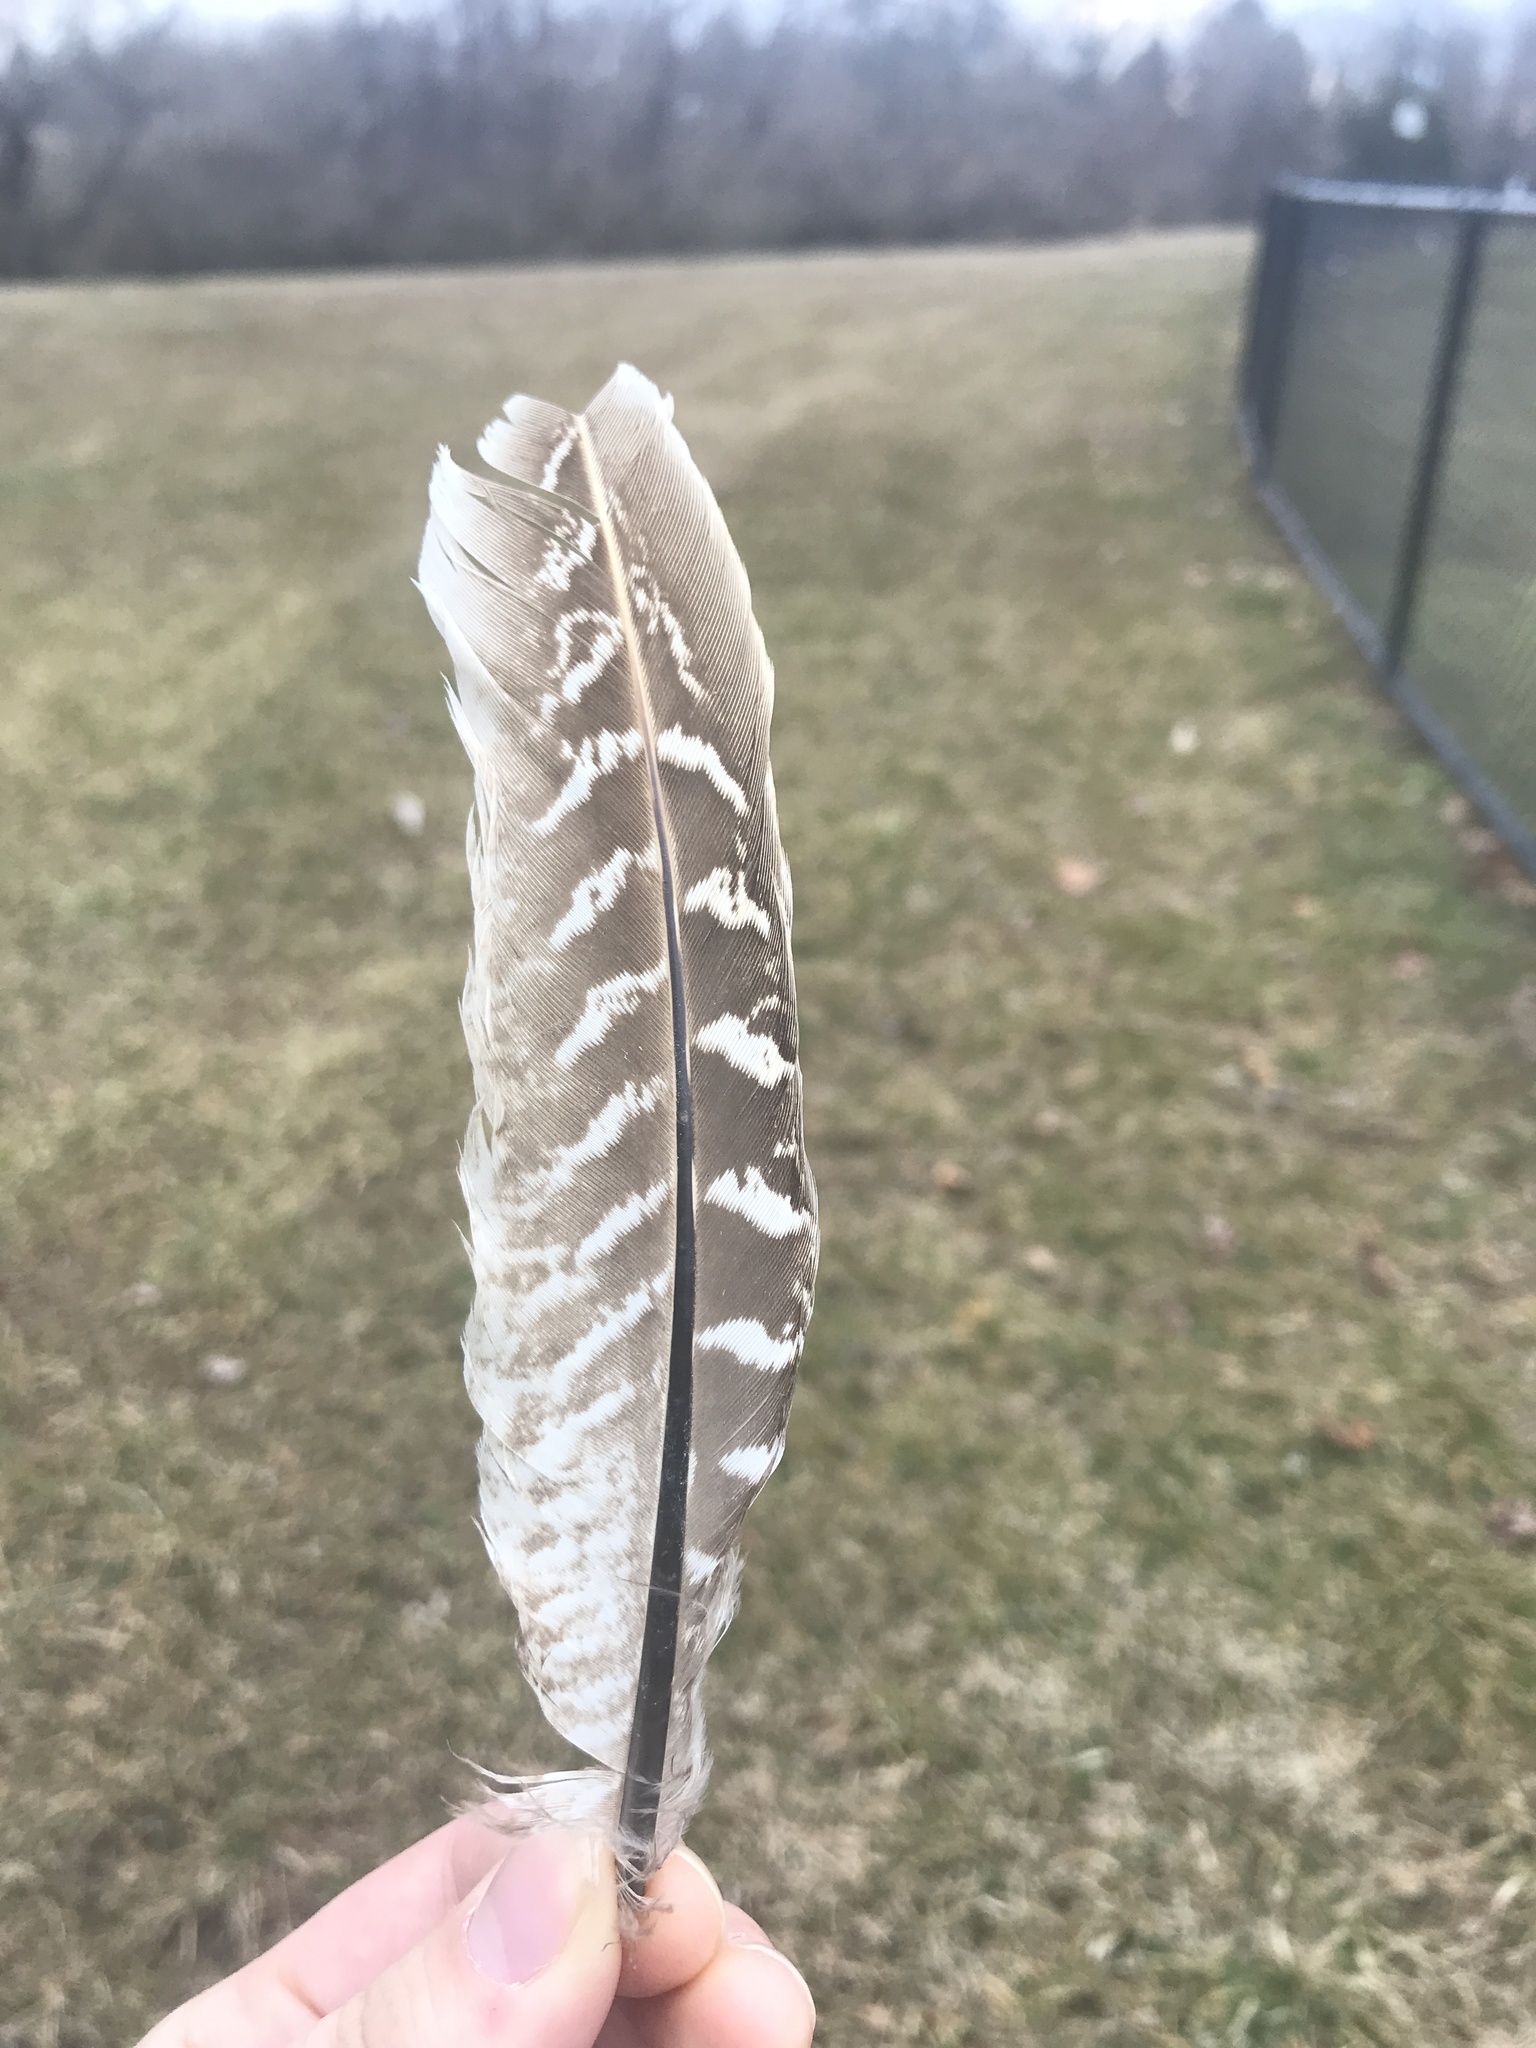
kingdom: Animalia
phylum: Chordata
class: Aves
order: Galliformes
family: Phasianidae
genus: Phasianus
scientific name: Phasianus colchicus
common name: Common pheasant
